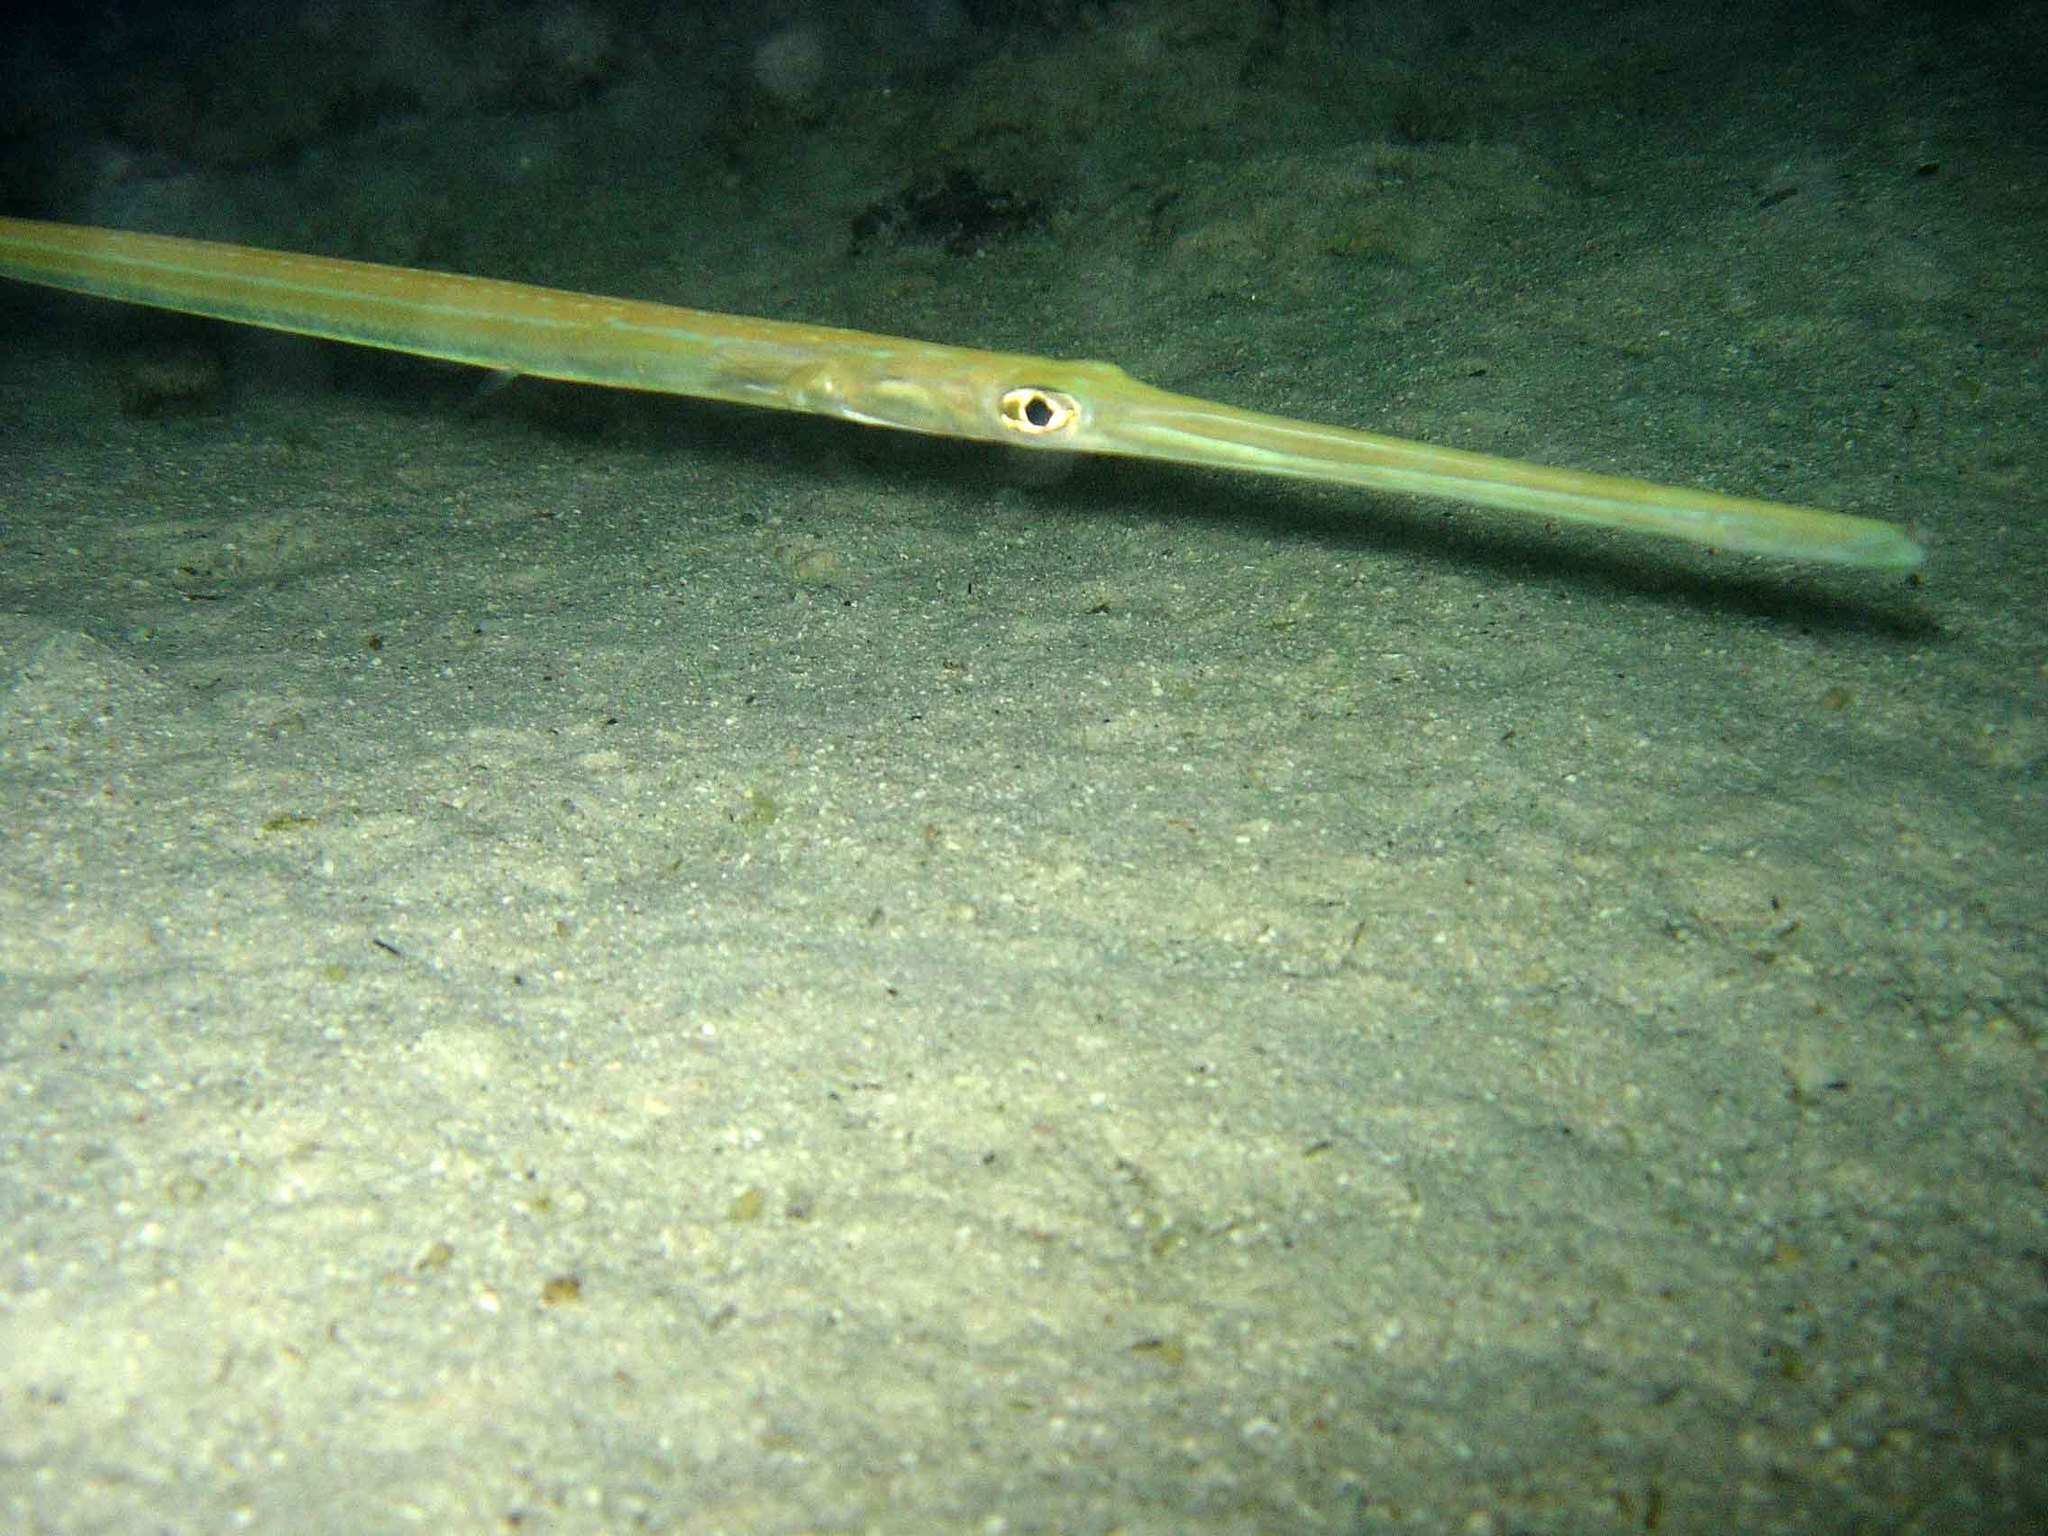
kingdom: Animalia
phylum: Chordata
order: Syngnathiformes
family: Fistulariidae
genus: Fistularia
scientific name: Fistularia commersonii
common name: Bluespotted cornetfish
